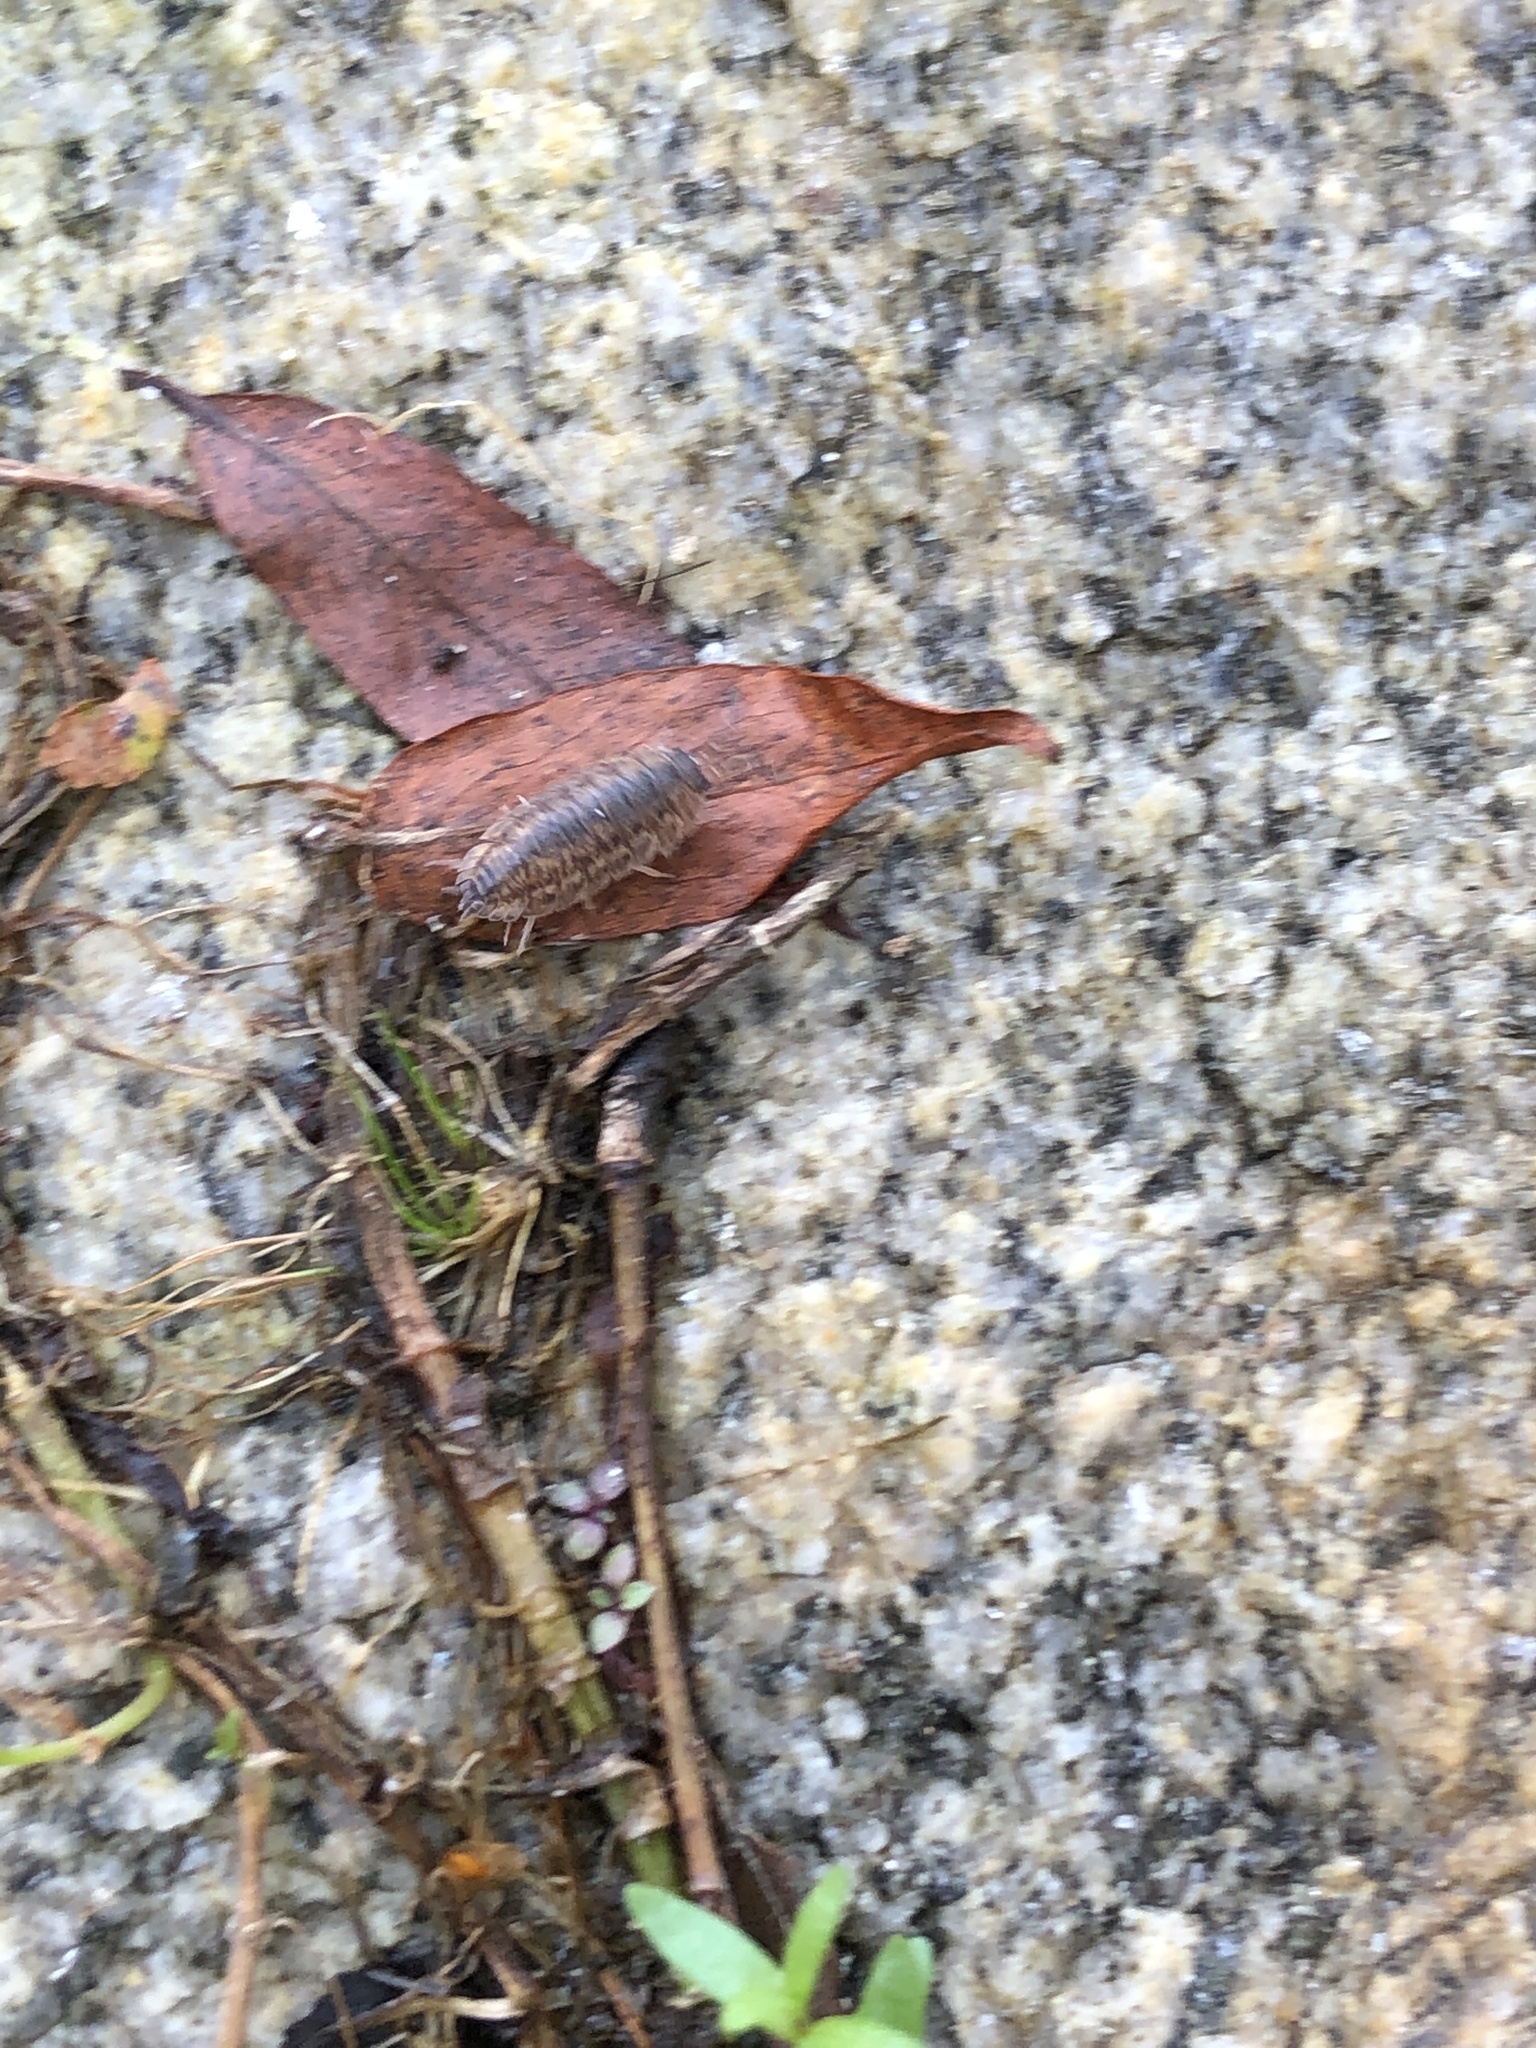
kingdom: Animalia
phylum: Arthropoda
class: Malacostraca
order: Isopoda
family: Trachelipodidae
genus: Trachelipus
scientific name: Trachelipus rathkii
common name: Isopod
